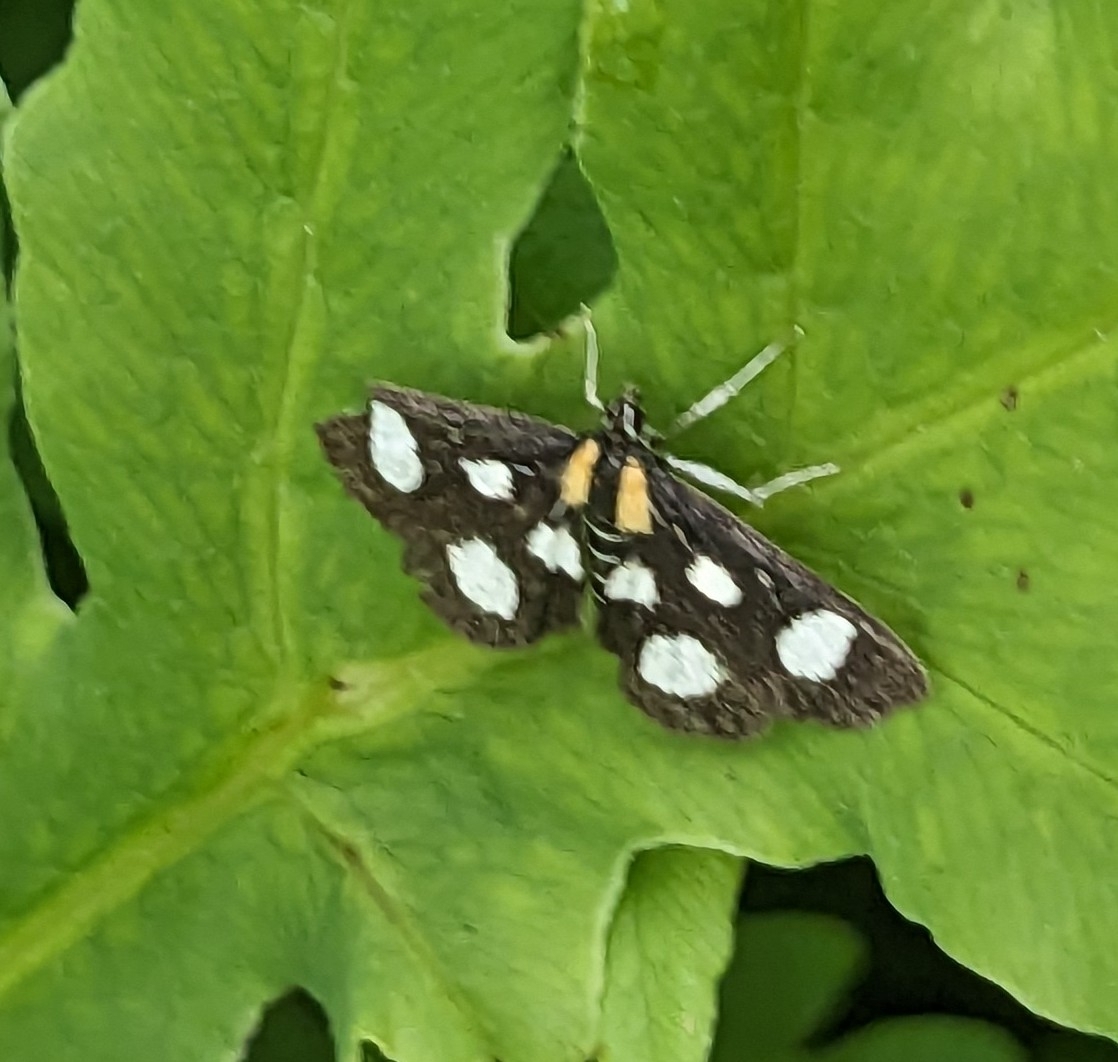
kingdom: Animalia
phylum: Arthropoda
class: Insecta
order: Lepidoptera
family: Crambidae
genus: Anania
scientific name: Anania funebris
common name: White-spotted sable moth
